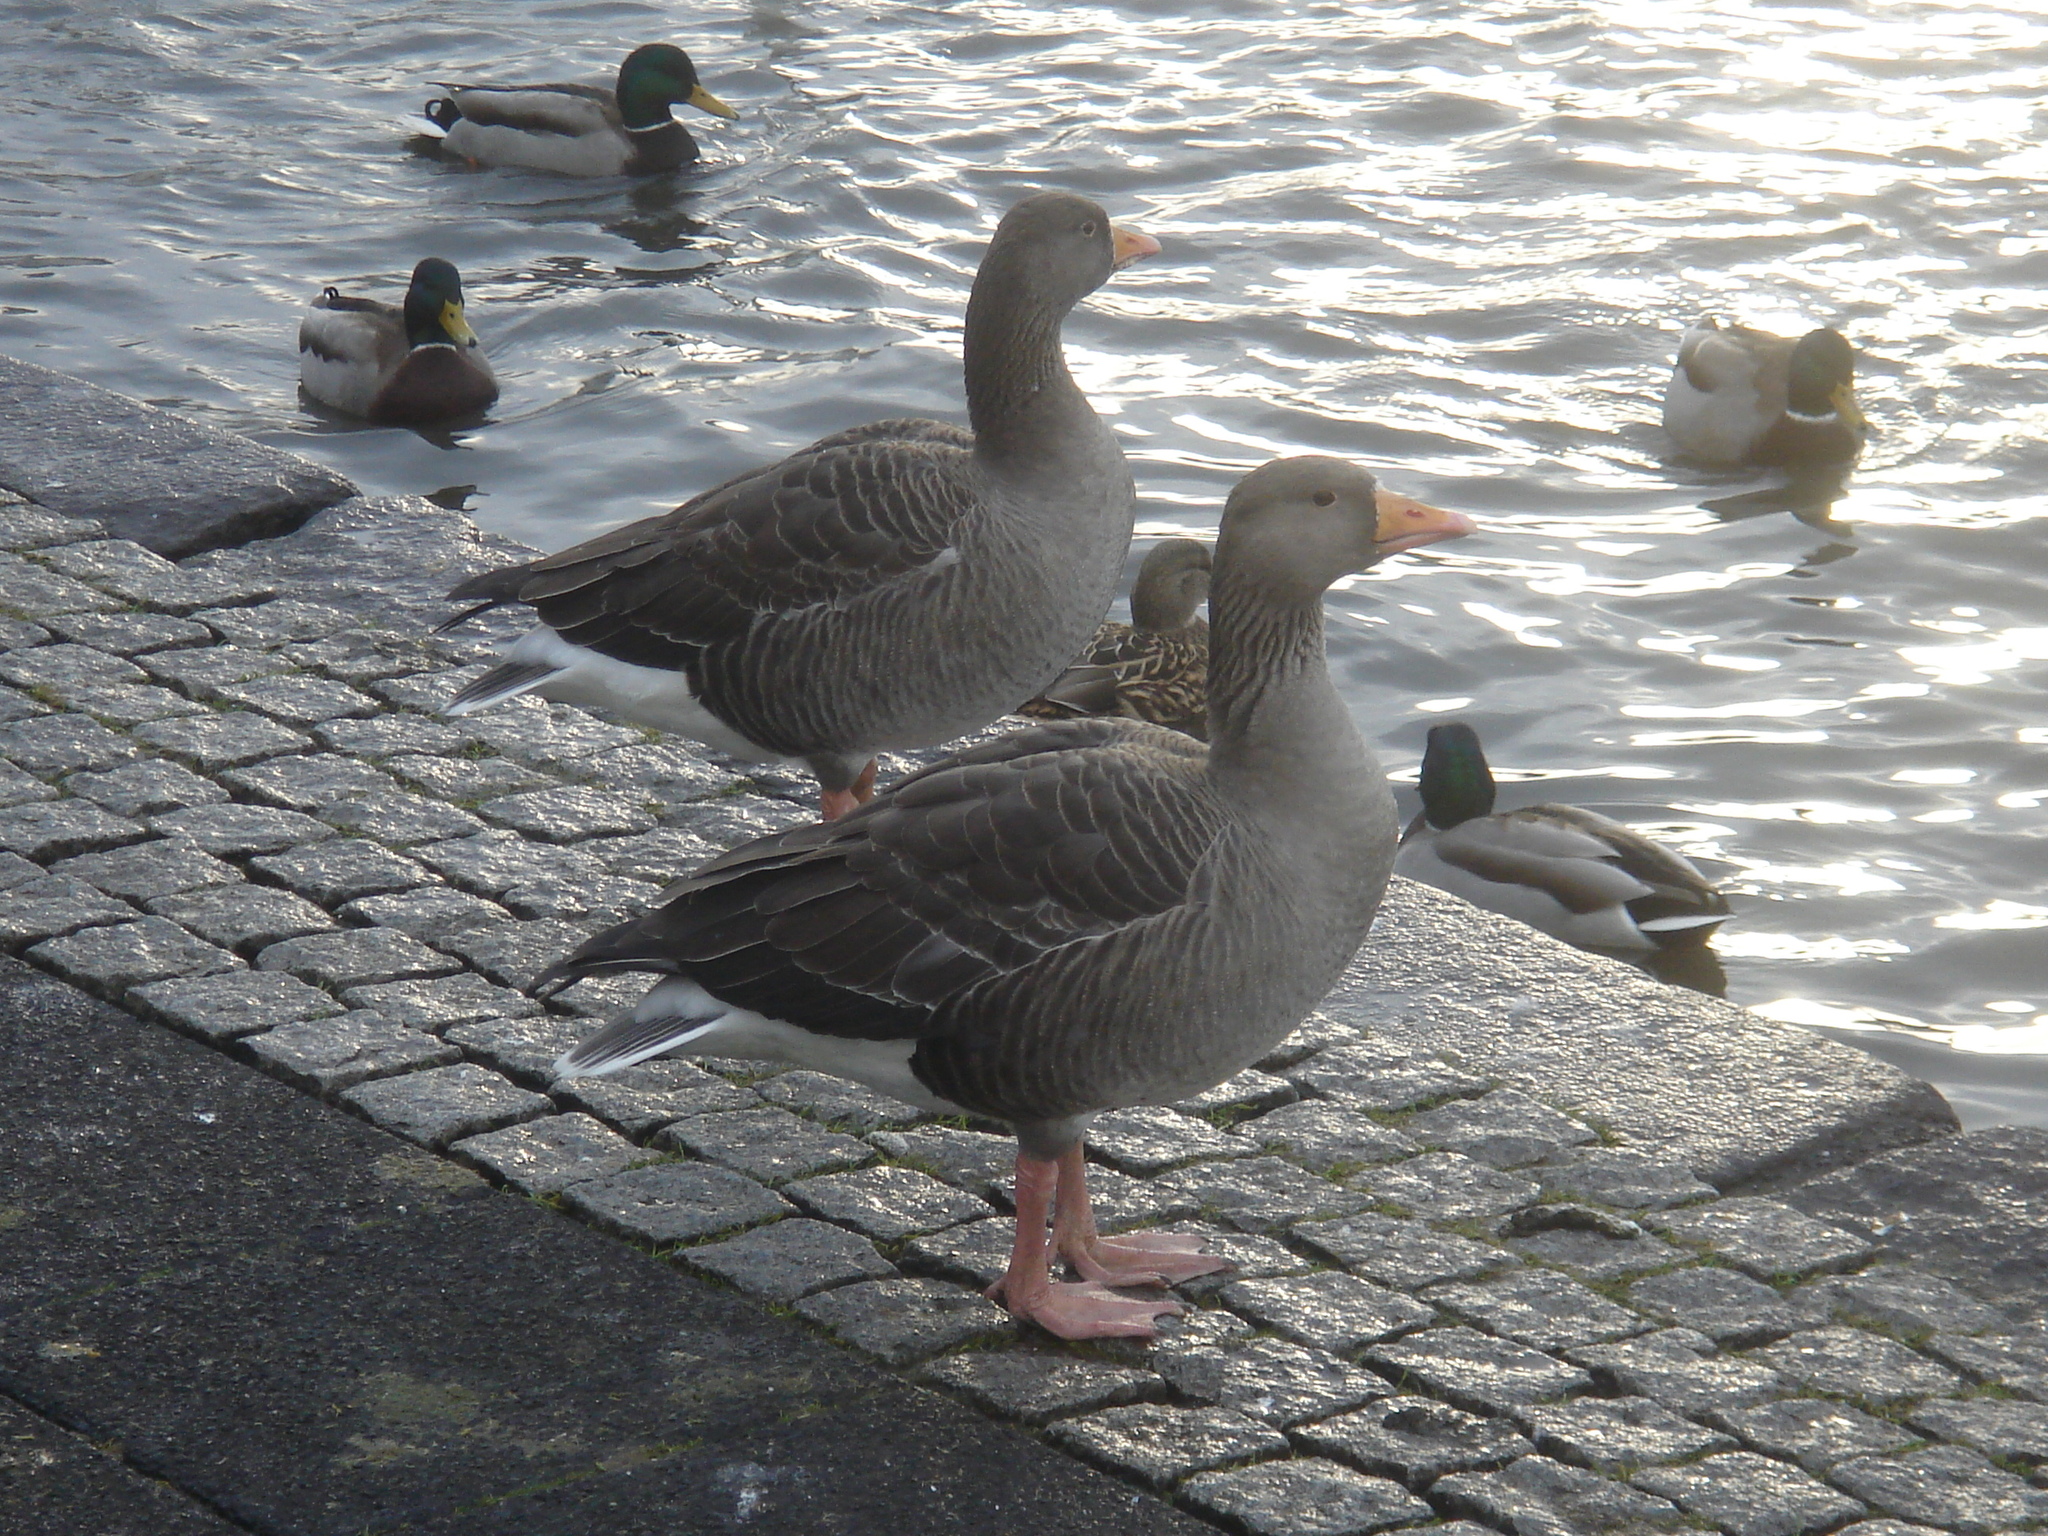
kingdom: Animalia
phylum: Chordata
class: Aves
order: Anseriformes
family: Anatidae
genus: Anser
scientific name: Anser anser
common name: Greylag goose
